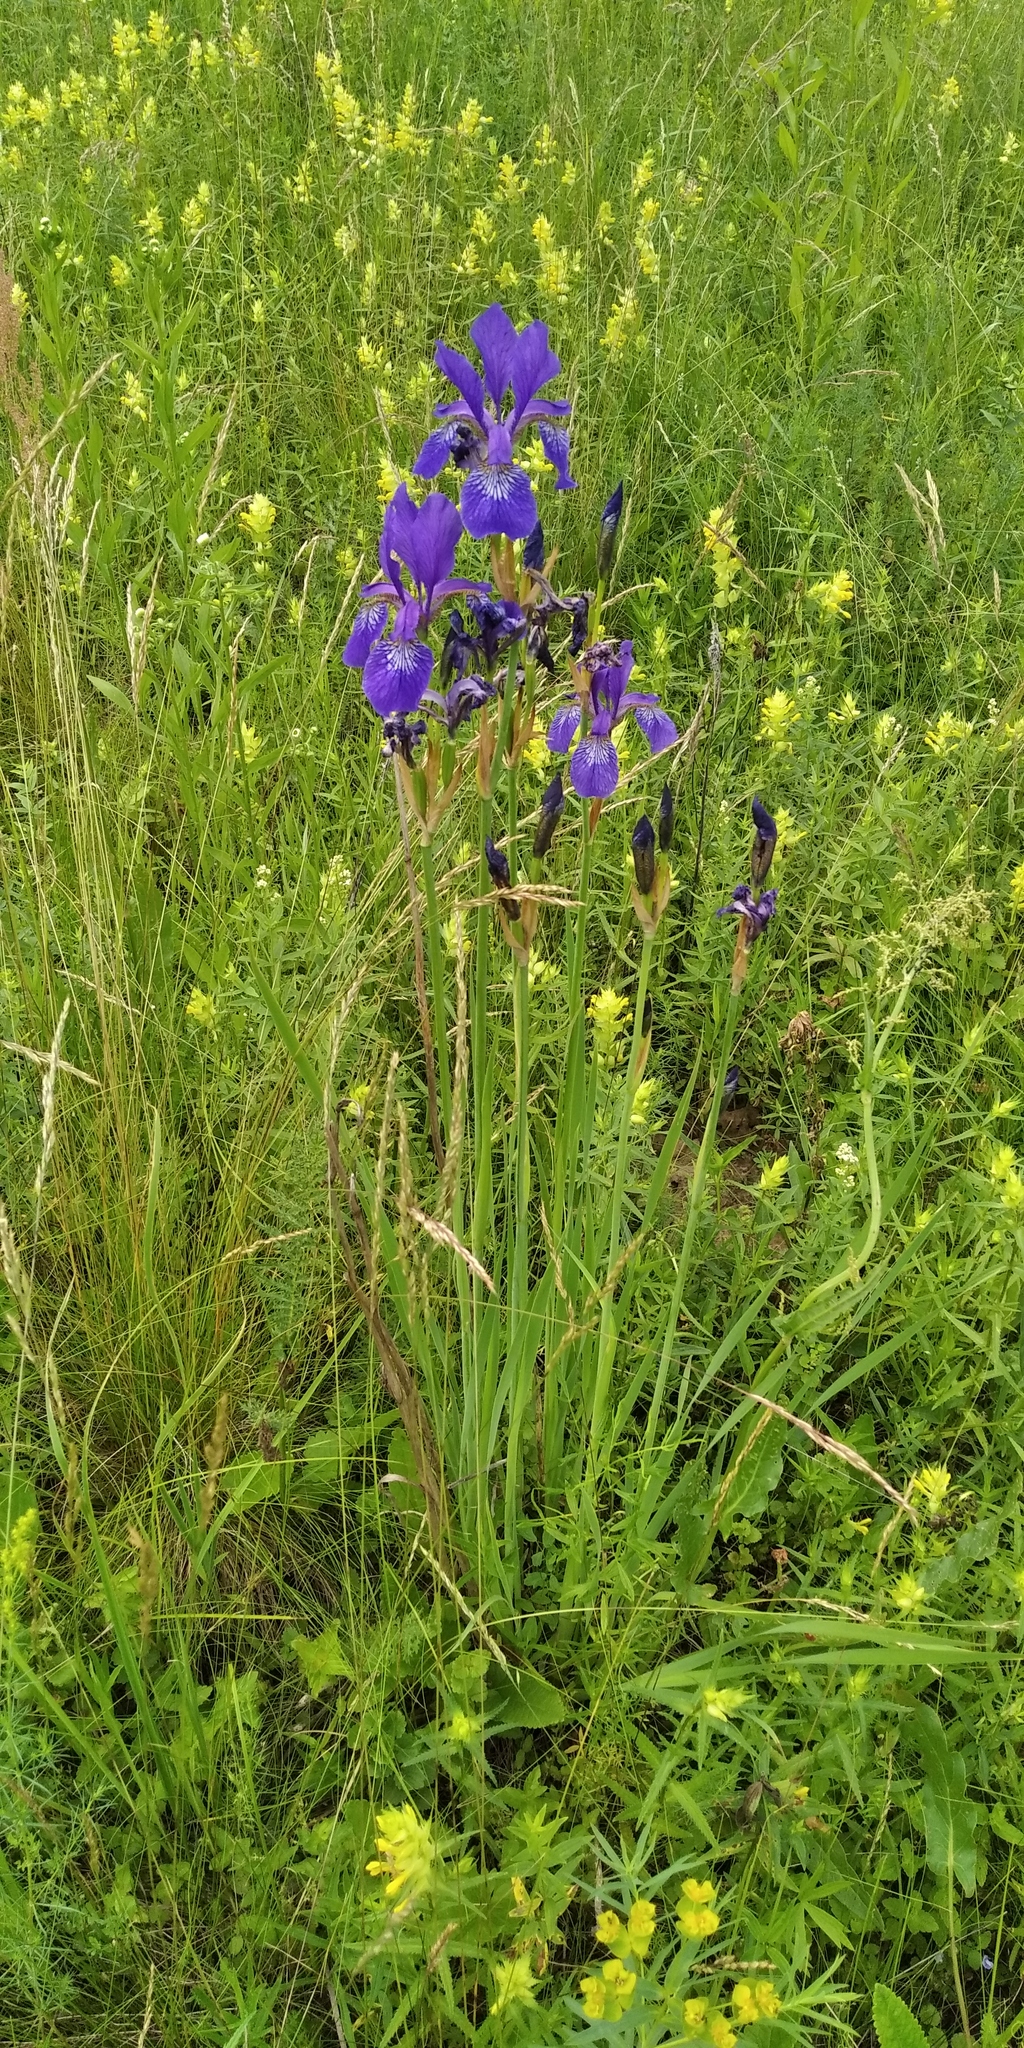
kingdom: Plantae
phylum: Tracheophyta
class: Liliopsida
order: Asparagales
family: Iridaceae
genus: Iris
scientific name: Iris sibirica
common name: Siberian iris
